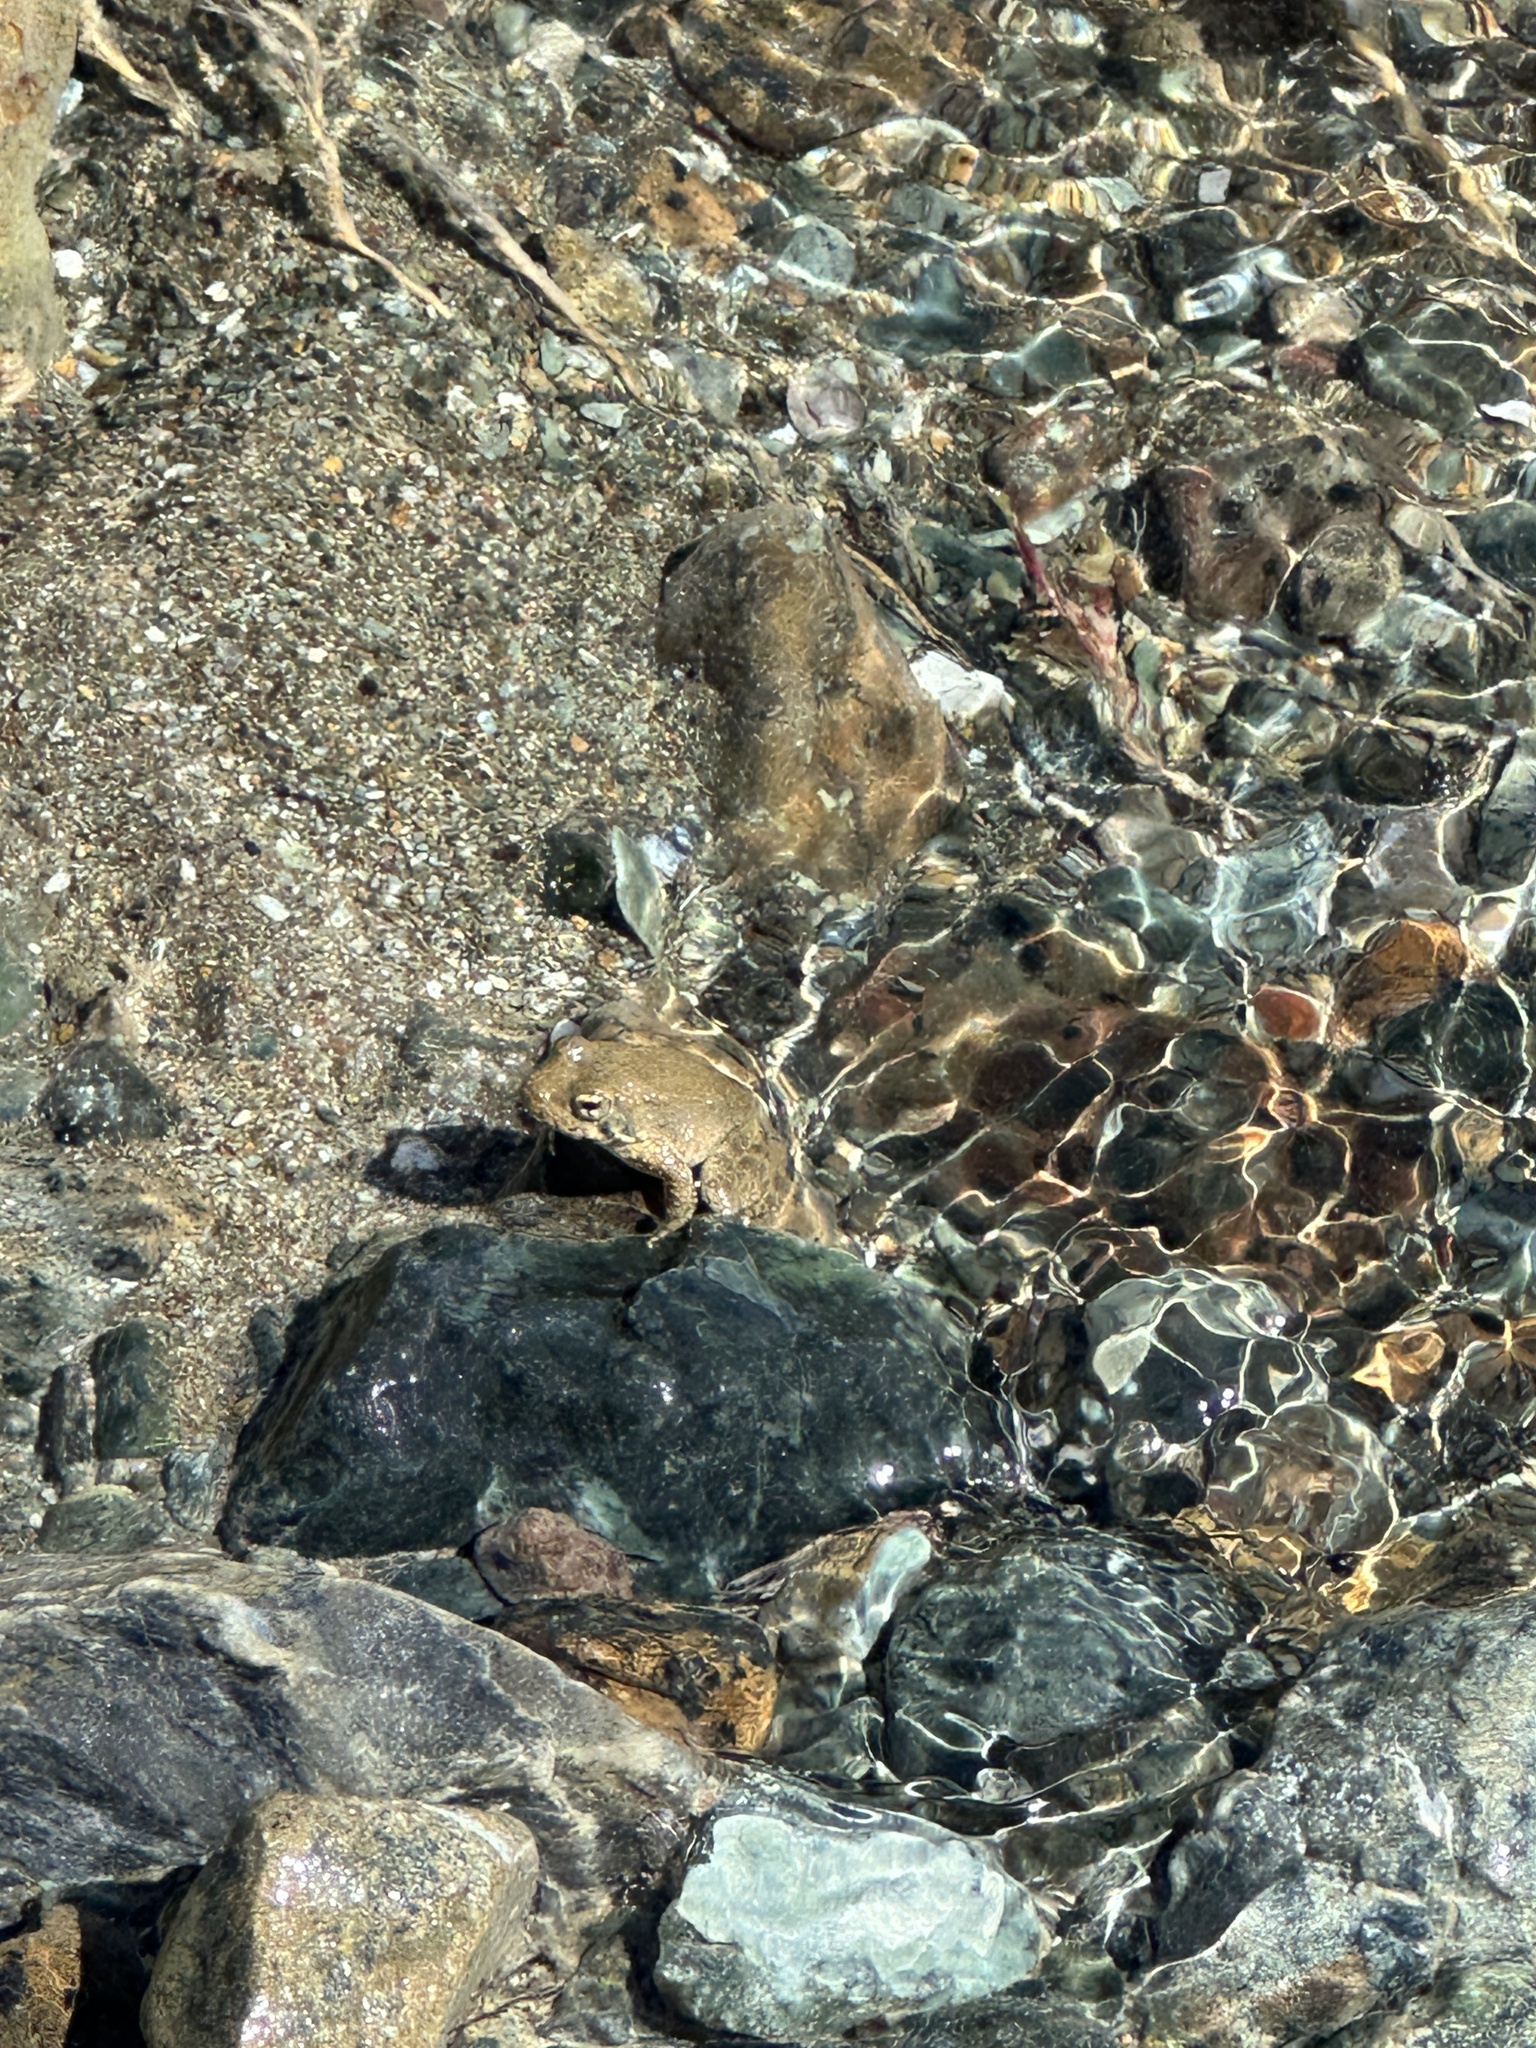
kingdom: Animalia
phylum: Chordata
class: Amphibia
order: Anura
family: Ranidae
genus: Rana
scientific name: Rana boylii
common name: Foothill yellow-legged frog
